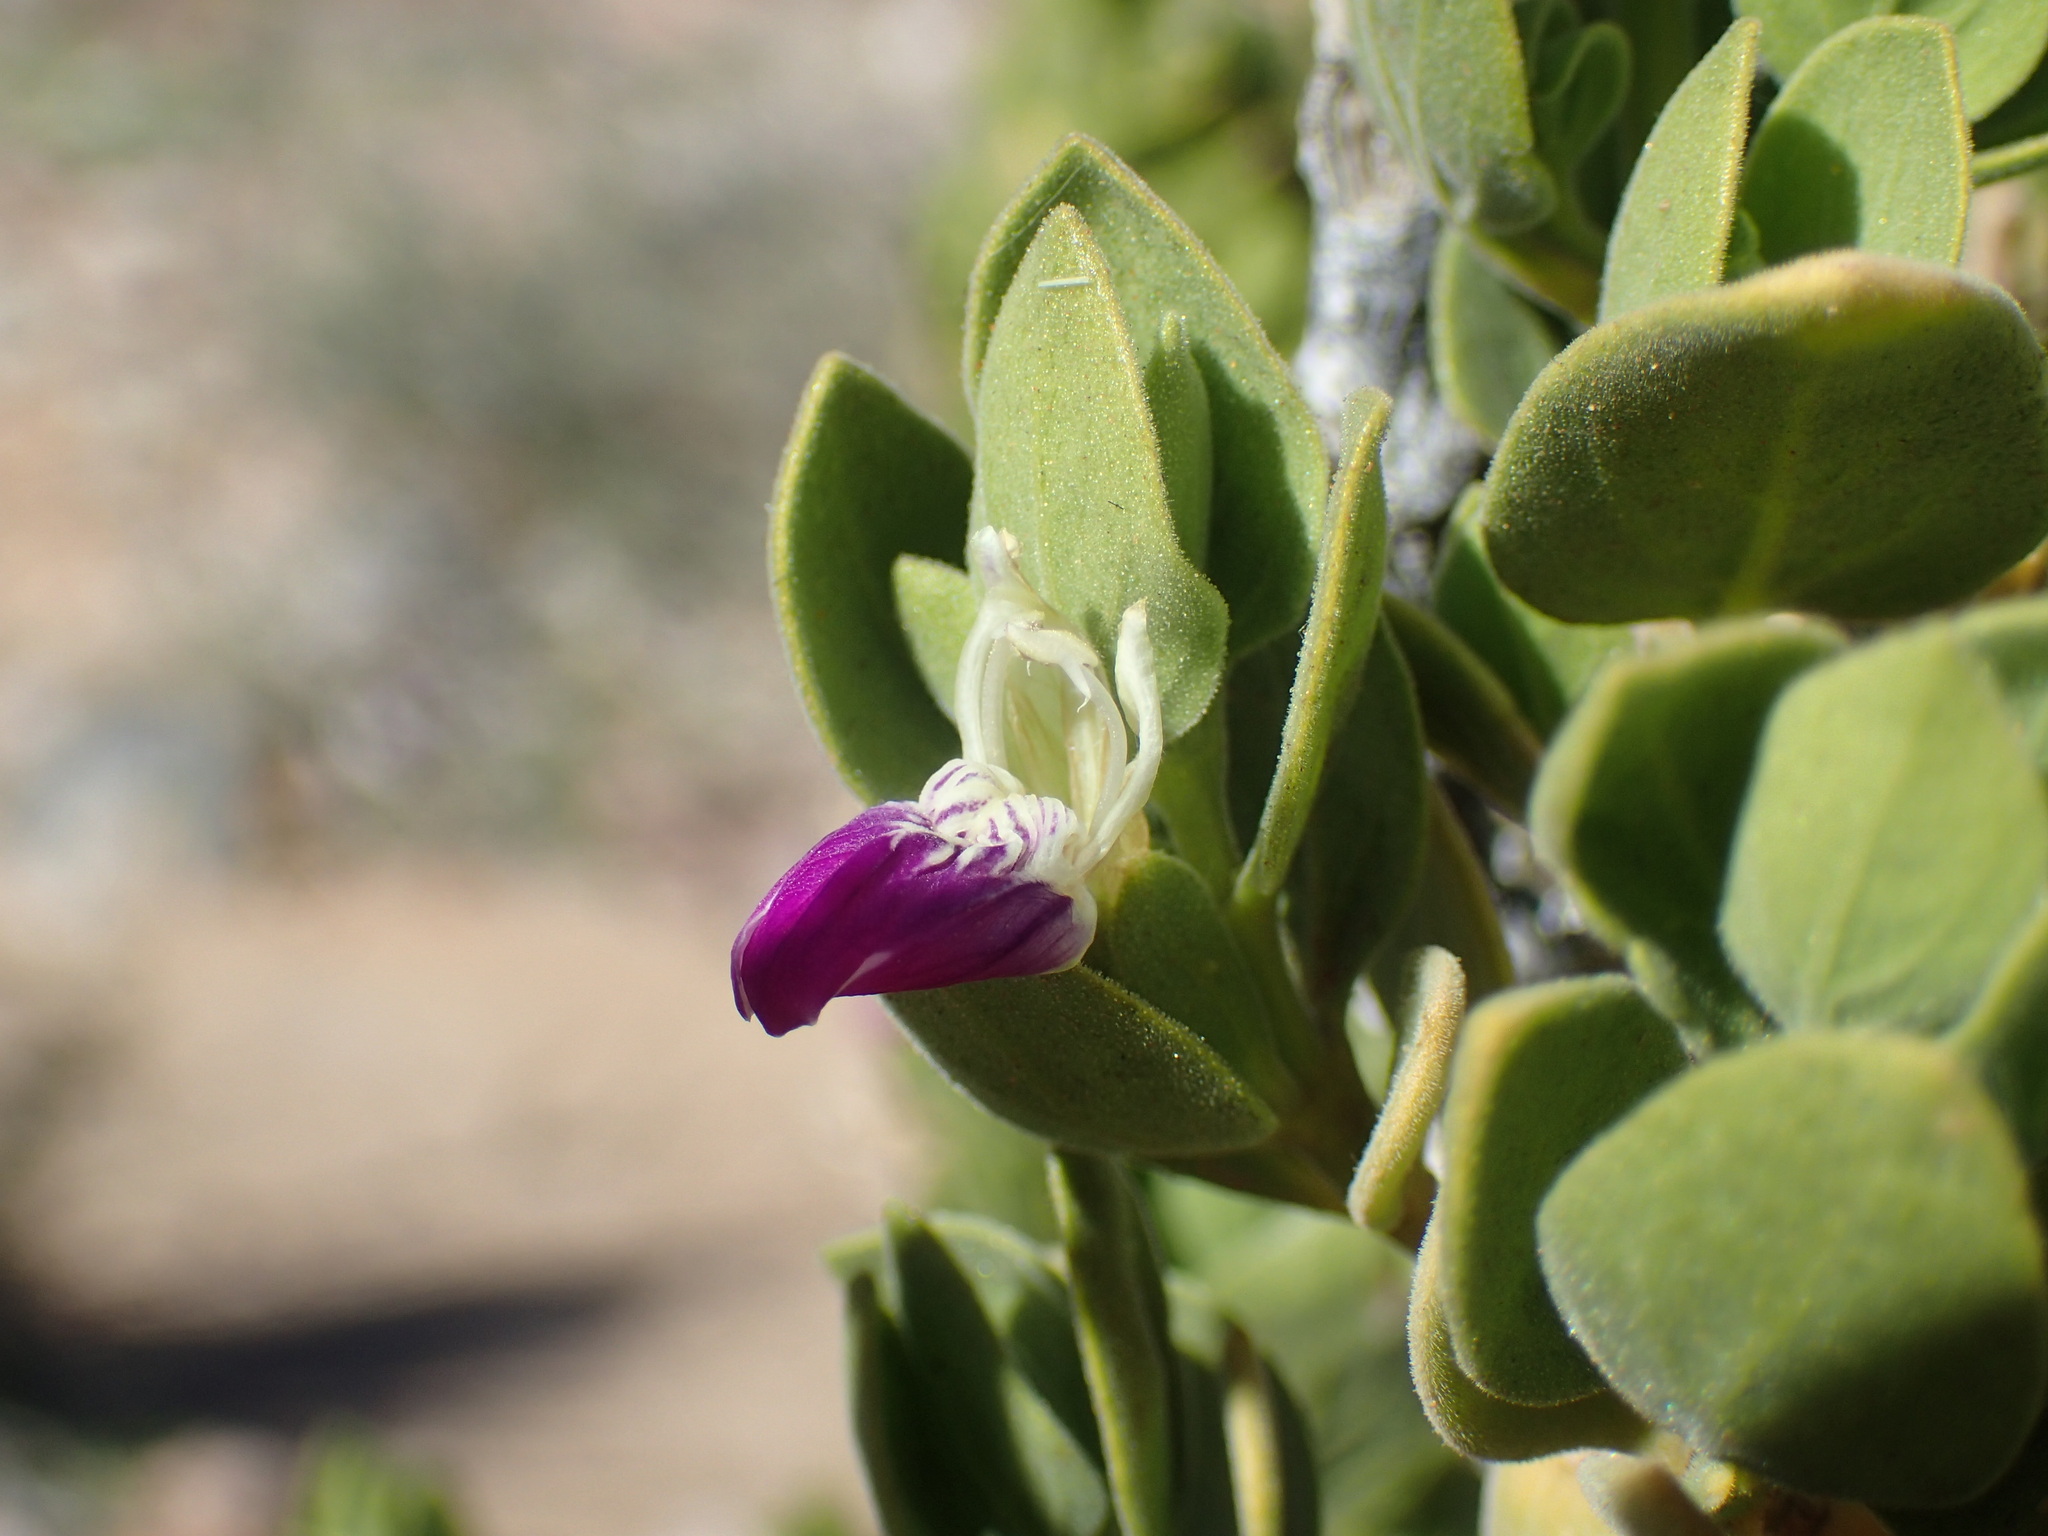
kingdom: Plantae
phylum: Tracheophyta
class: Magnoliopsida
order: Lamiales
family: Acanthaceae
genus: Pogonospermum
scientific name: Pogonospermum
